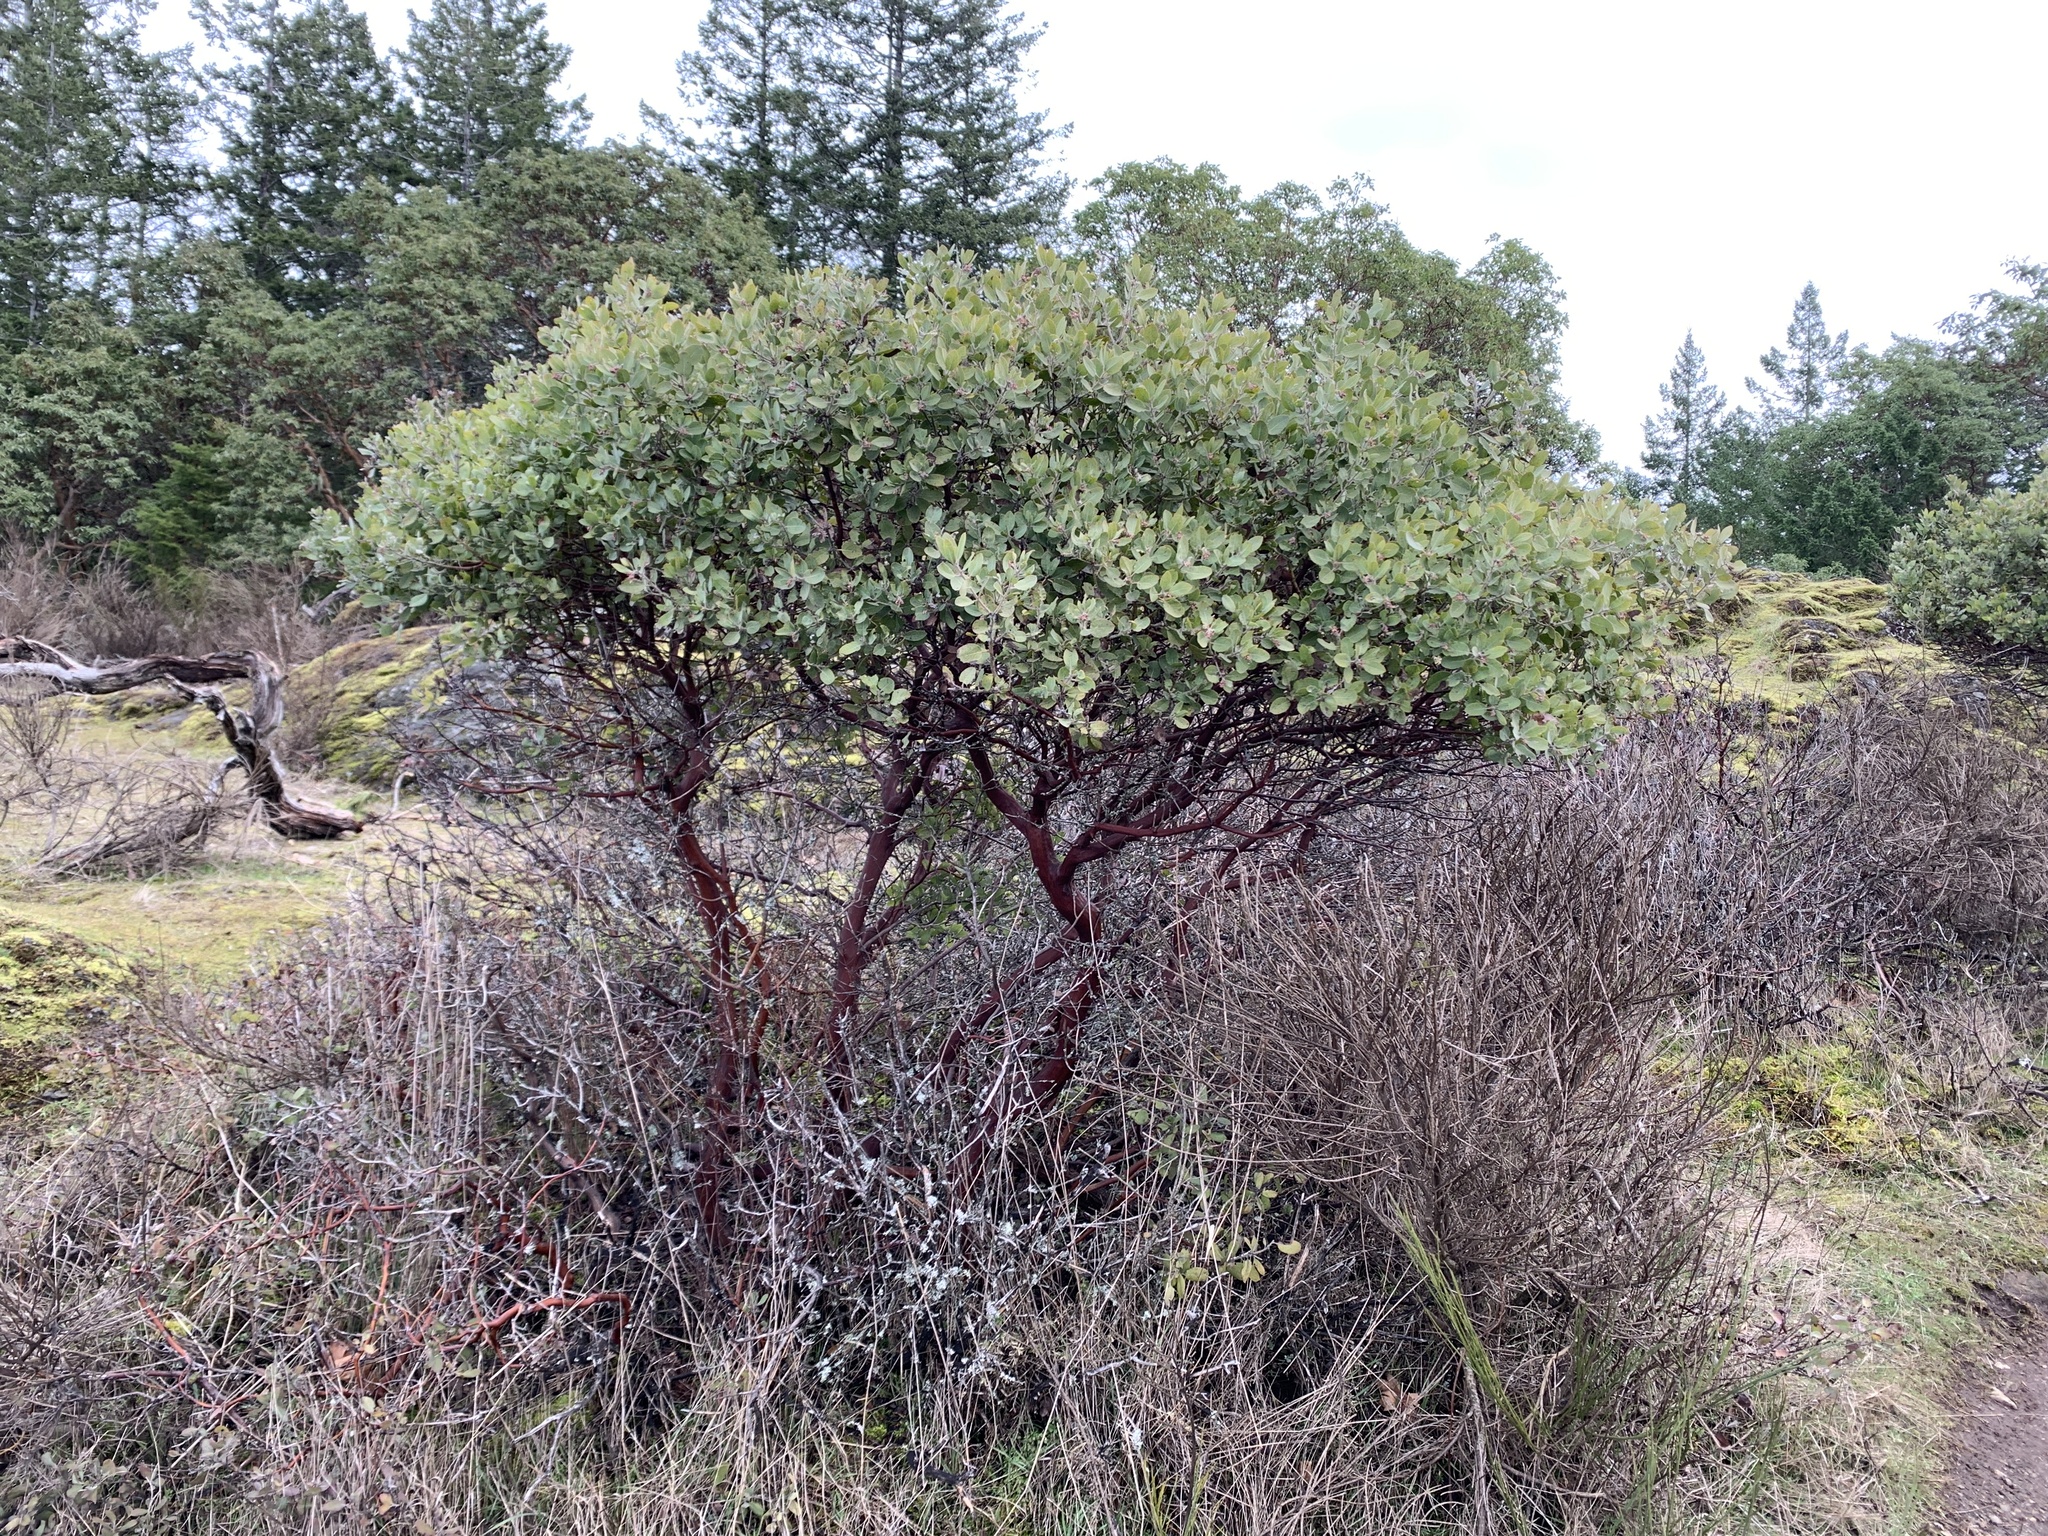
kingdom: Plantae
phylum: Tracheophyta
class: Magnoliopsida
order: Ericales
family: Ericaceae
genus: Arctostaphylos
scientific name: Arctostaphylos columbiana
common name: Bristly bearberry
